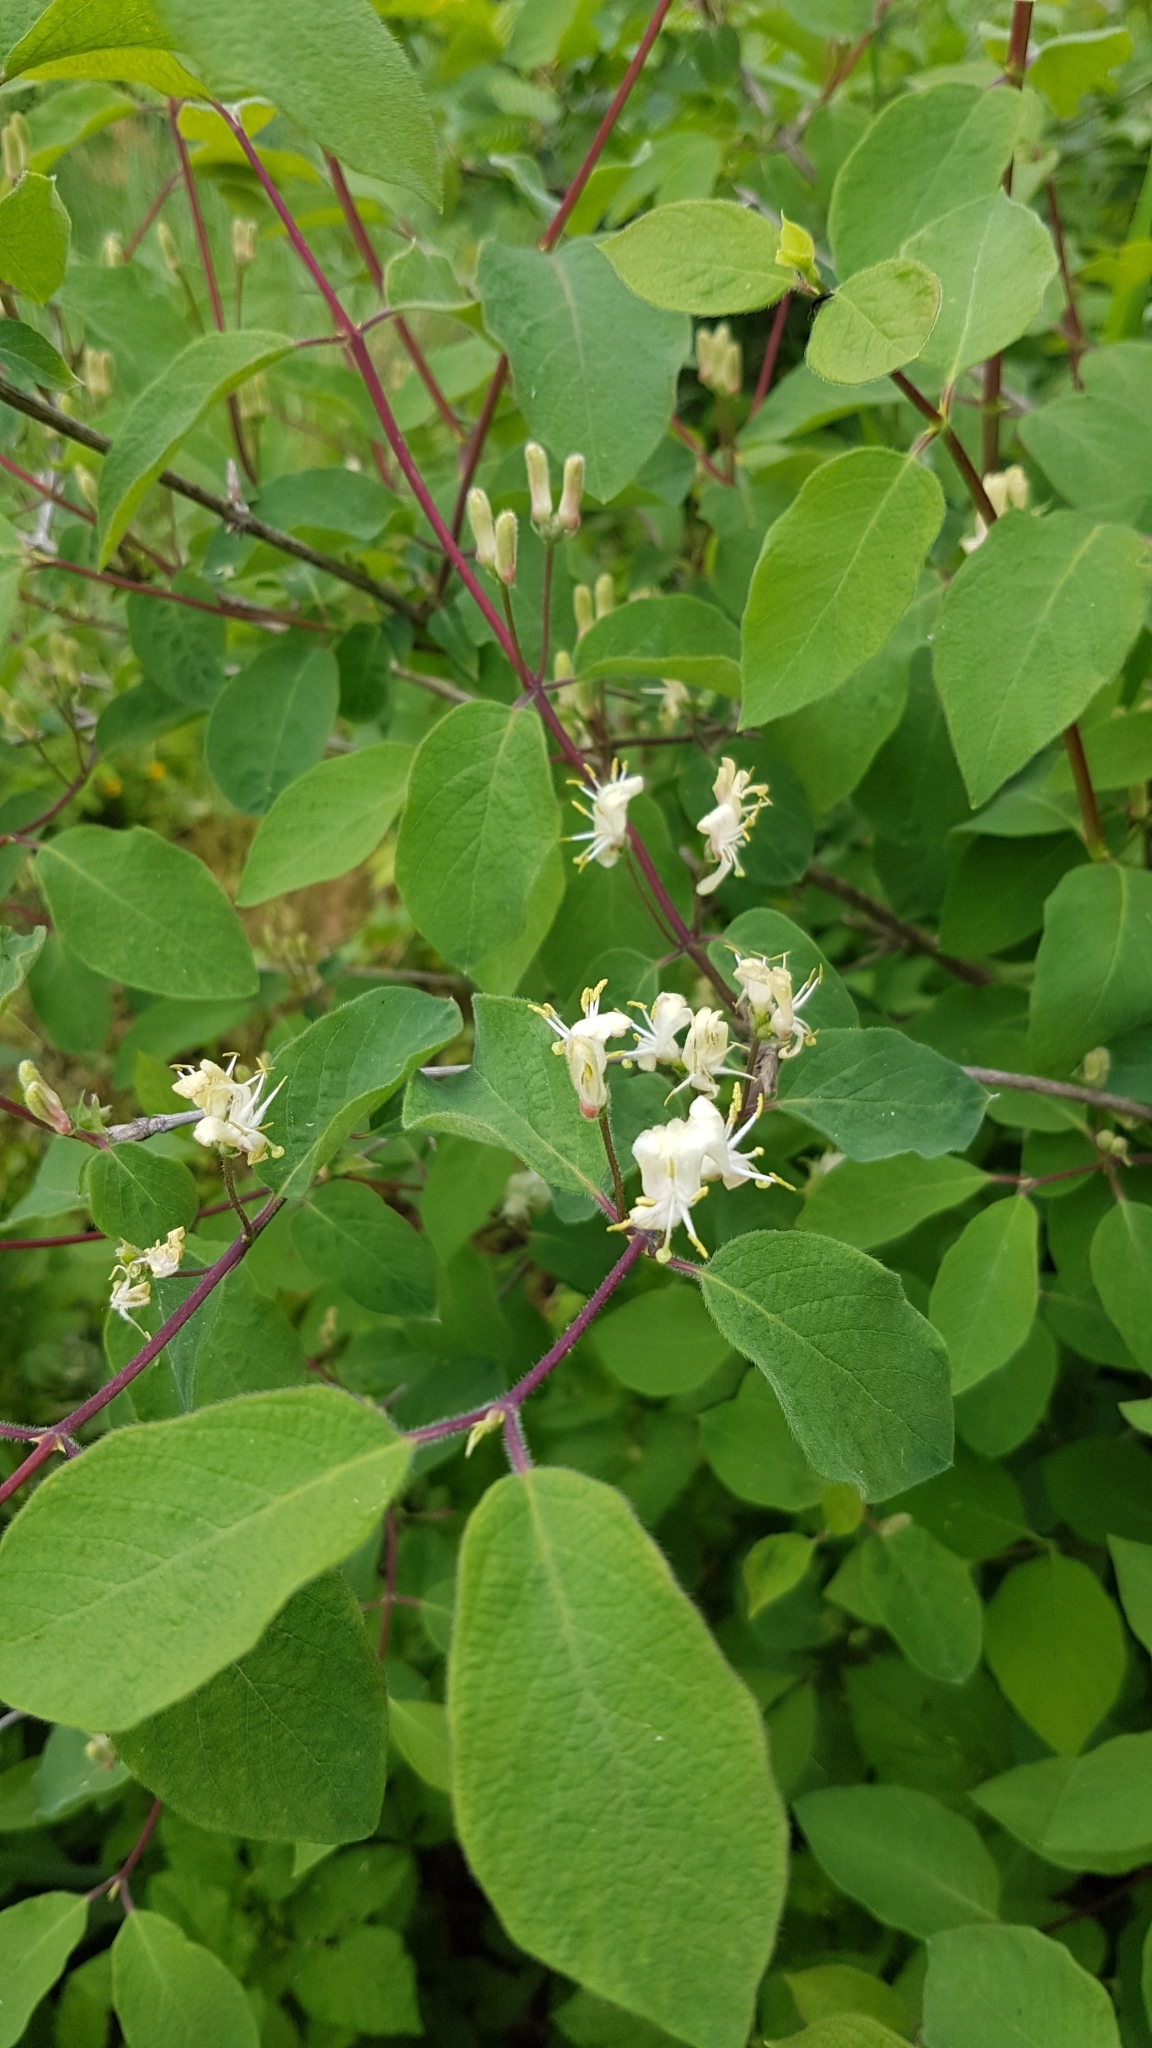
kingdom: Plantae
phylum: Tracheophyta
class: Magnoliopsida
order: Dipsacales
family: Caprifoliaceae
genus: Lonicera
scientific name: Lonicera xylosteum
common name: Fly honeysuckle
